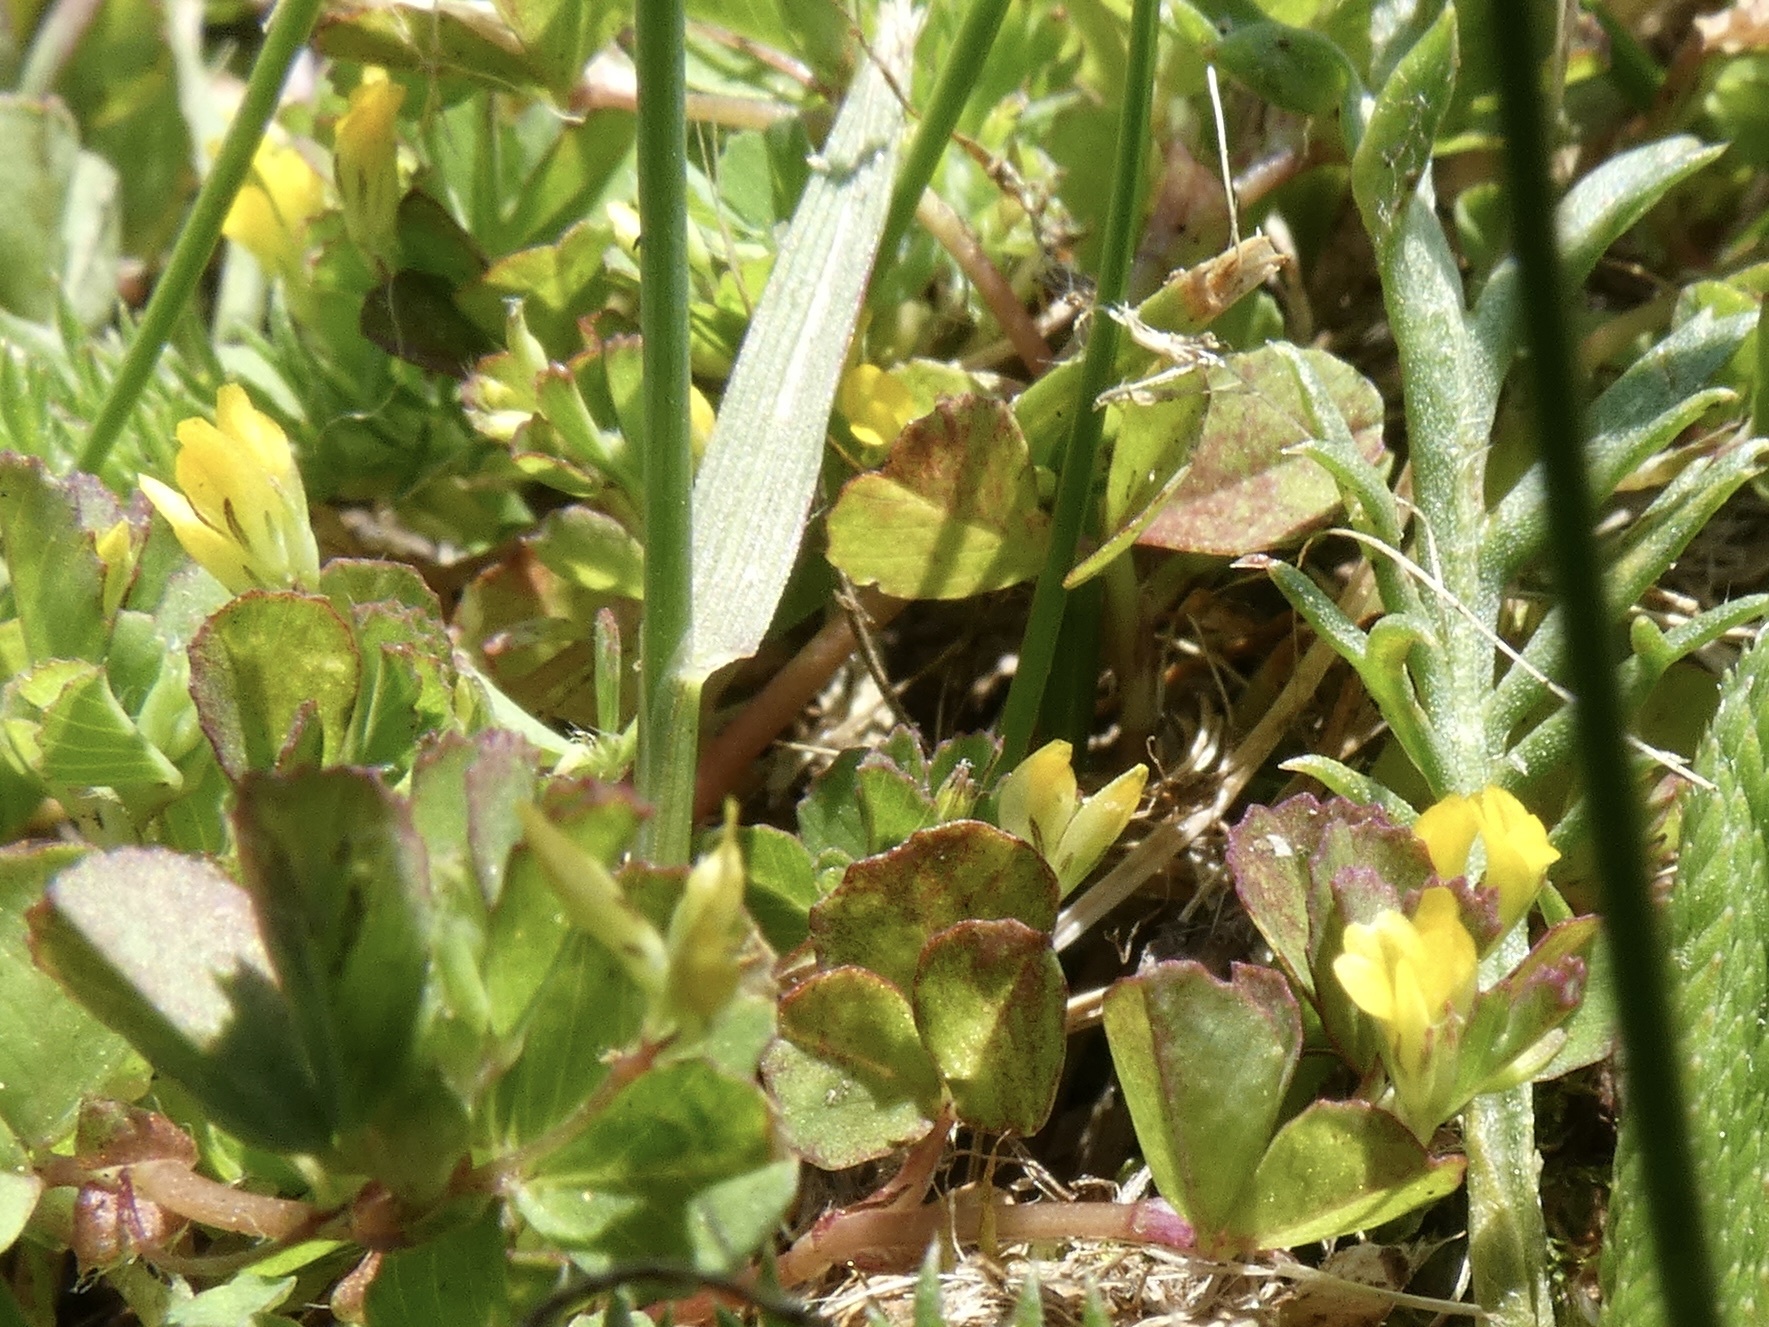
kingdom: Plantae
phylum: Tracheophyta
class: Magnoliopsida
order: Fabales
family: Fabaceae
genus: Trifolium
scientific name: Trifolium micranthum
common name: Slender trefoil
